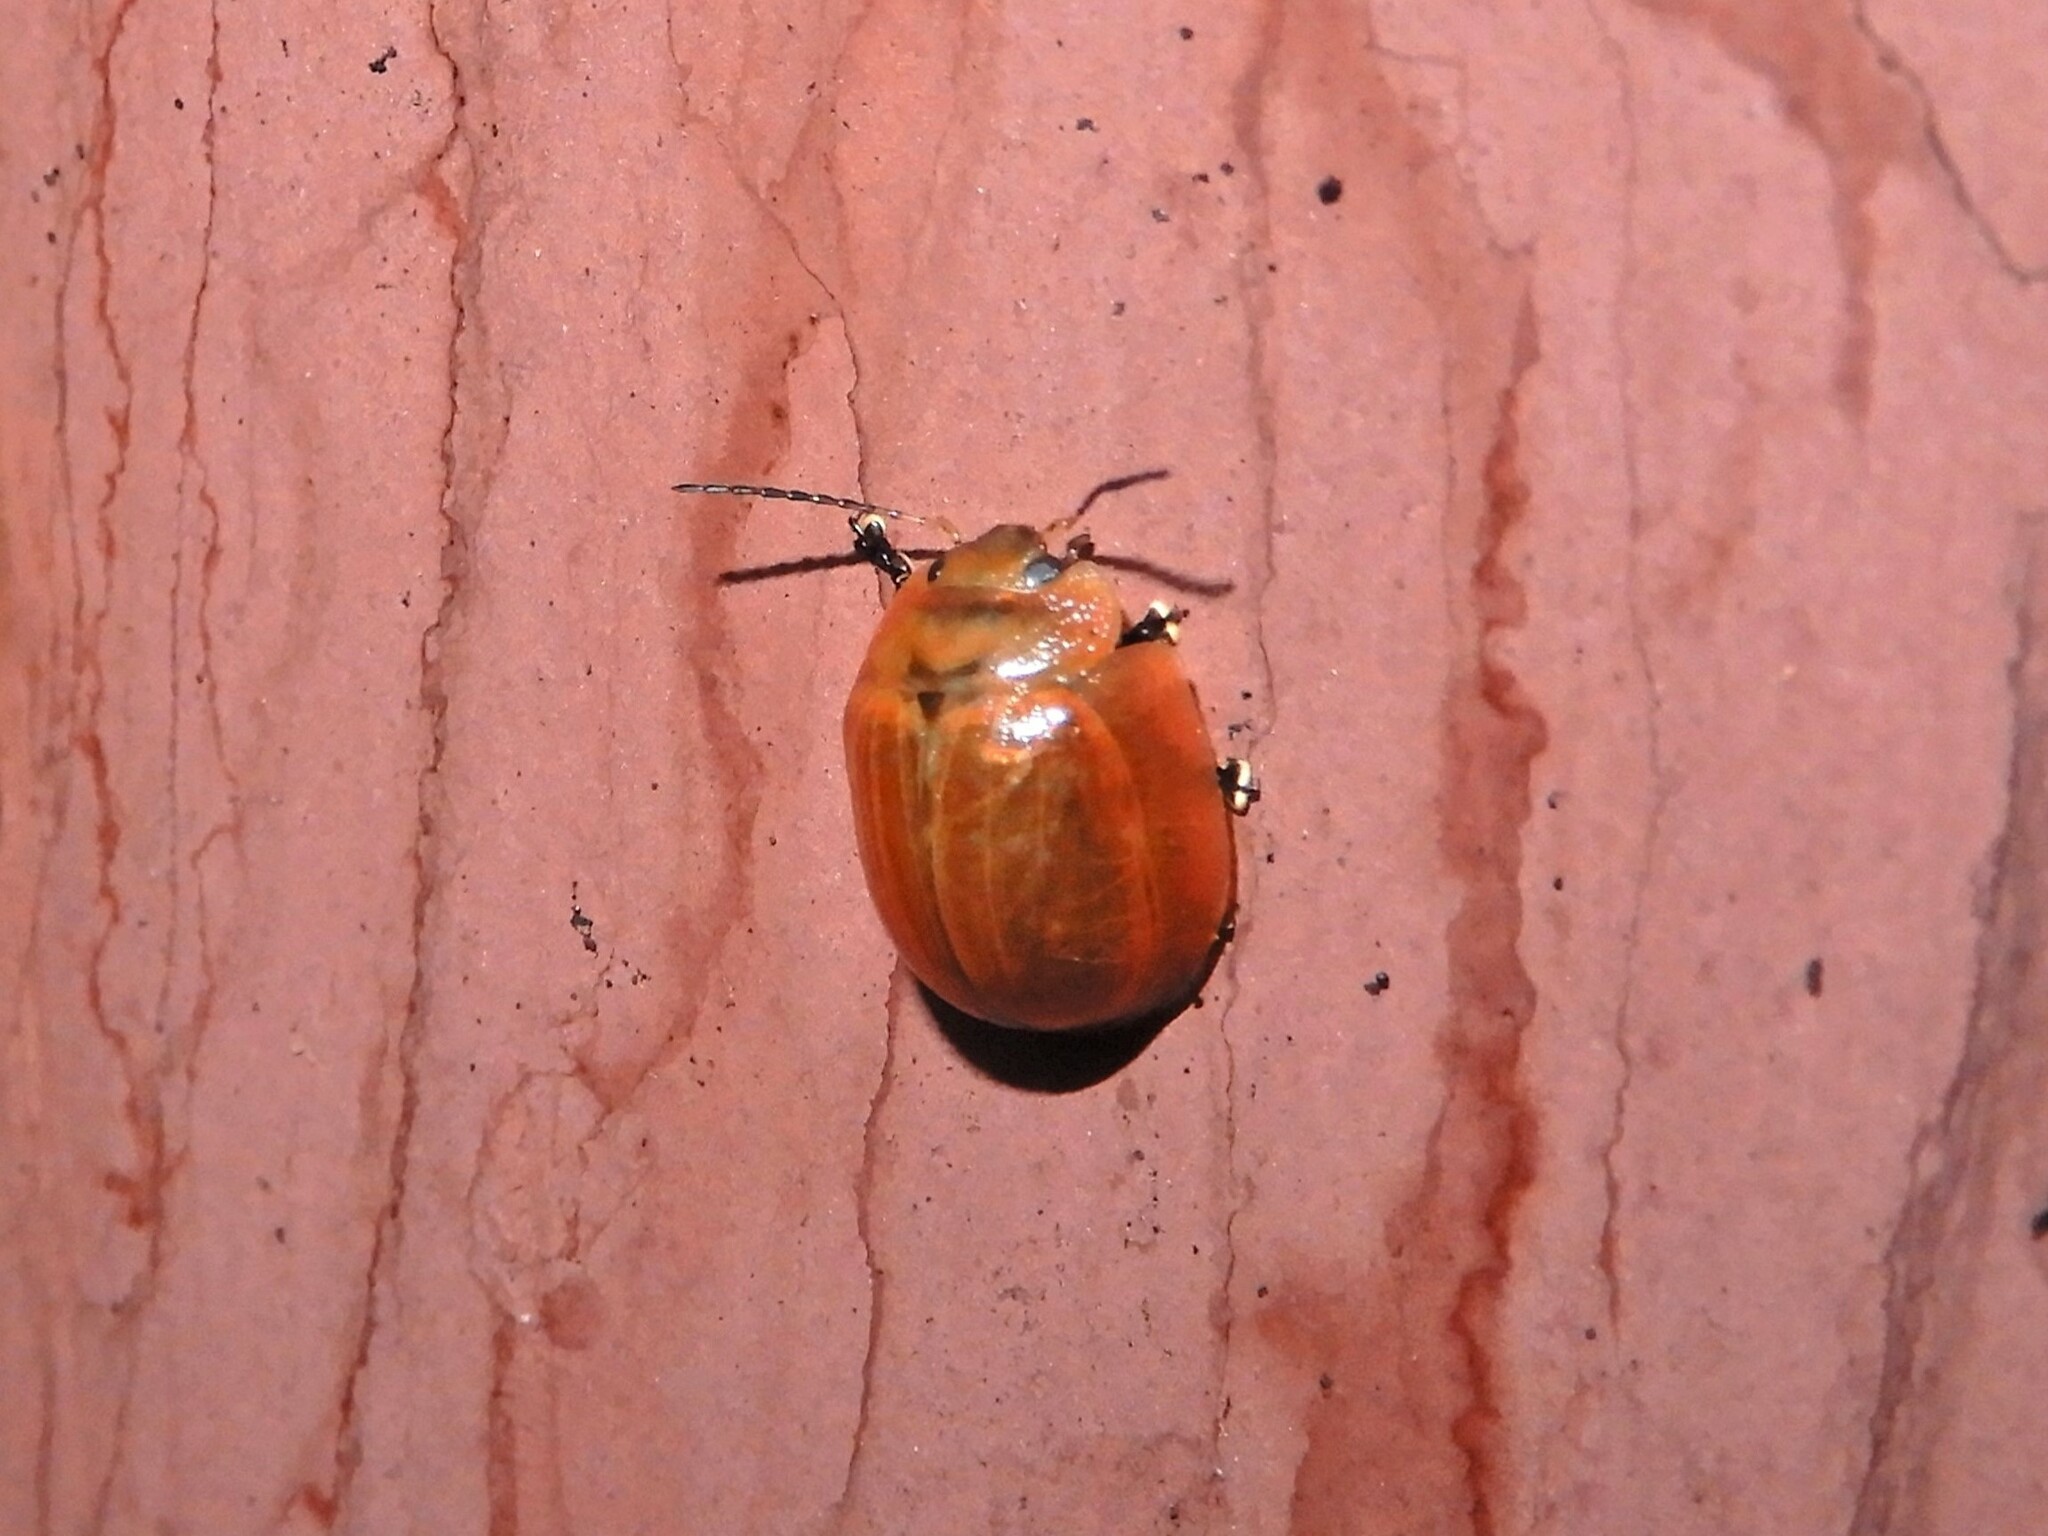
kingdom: Animalia
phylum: Arthropoda
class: Insecta
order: Coleoptera
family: Chrysomelidae
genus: Paropsisterna
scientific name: Paropsisterna cloelia
